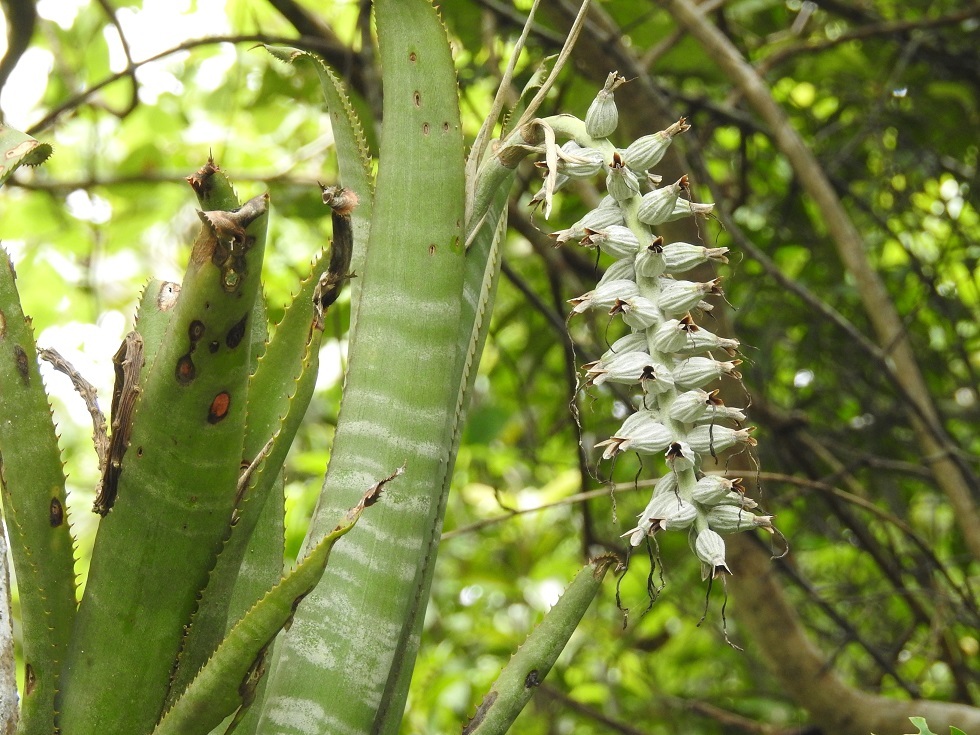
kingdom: Plantae
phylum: Tracheophyta
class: Liliopsida
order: Poales
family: Bromeliaceae
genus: Billbergia
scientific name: Billbergia pallidiflora
